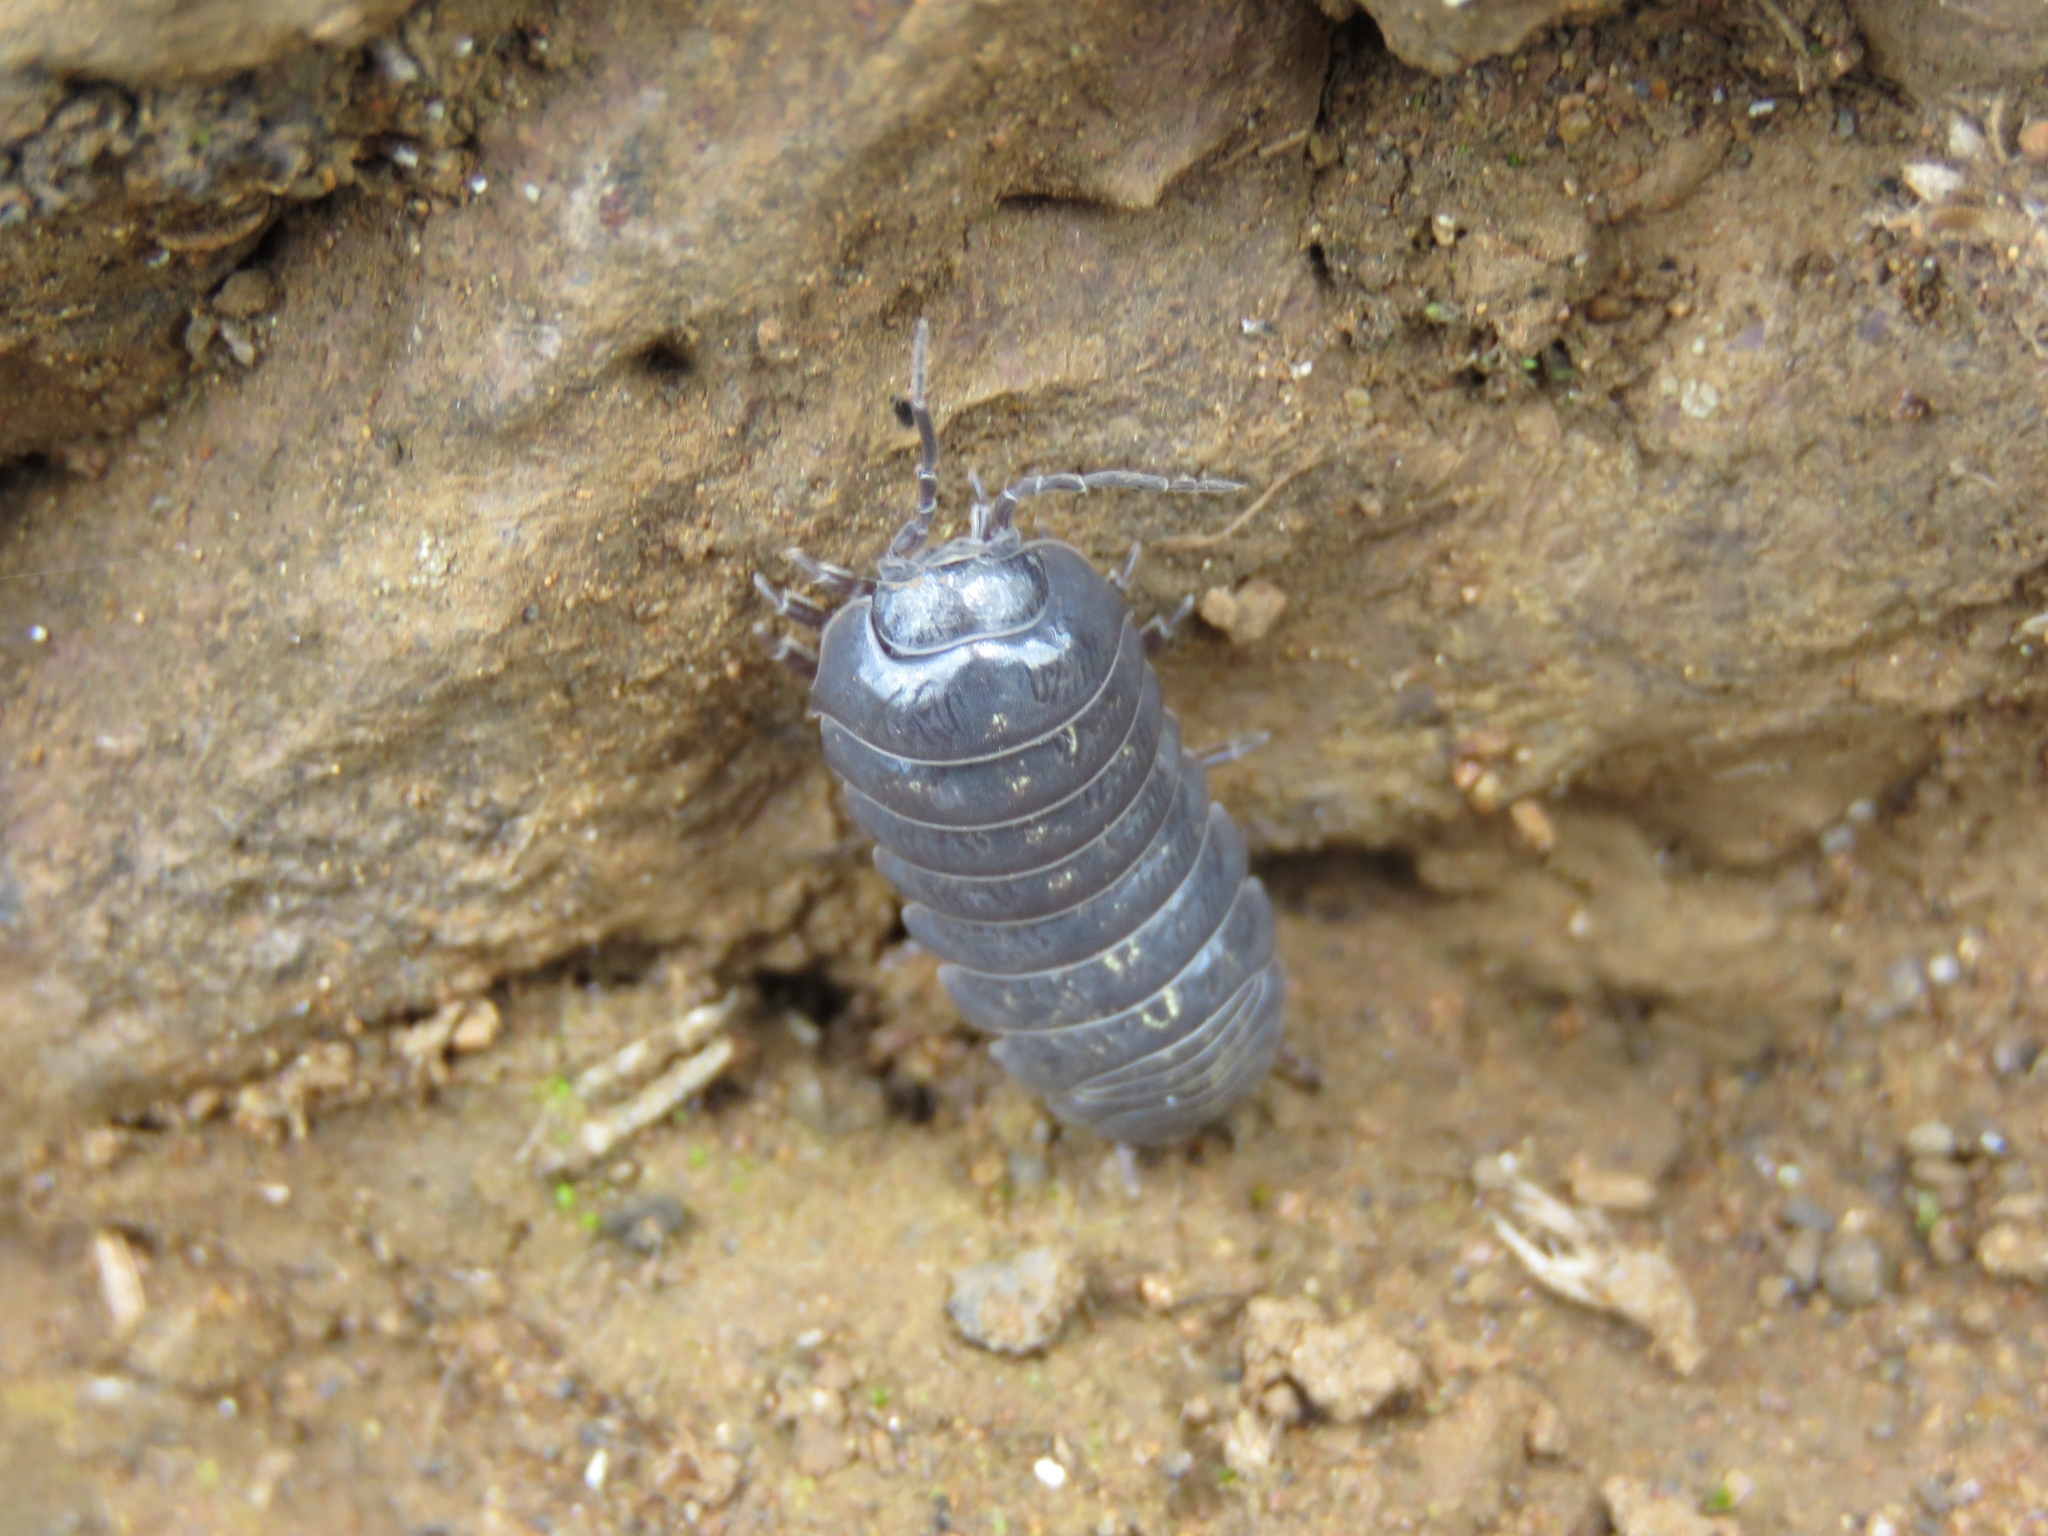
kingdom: Animalia
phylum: Arthropoda
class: Malacostraca
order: Isopoda
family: Armadillidiidae
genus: Armadillidium
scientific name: Armadillidium vulgare
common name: Common pill woodlouse
